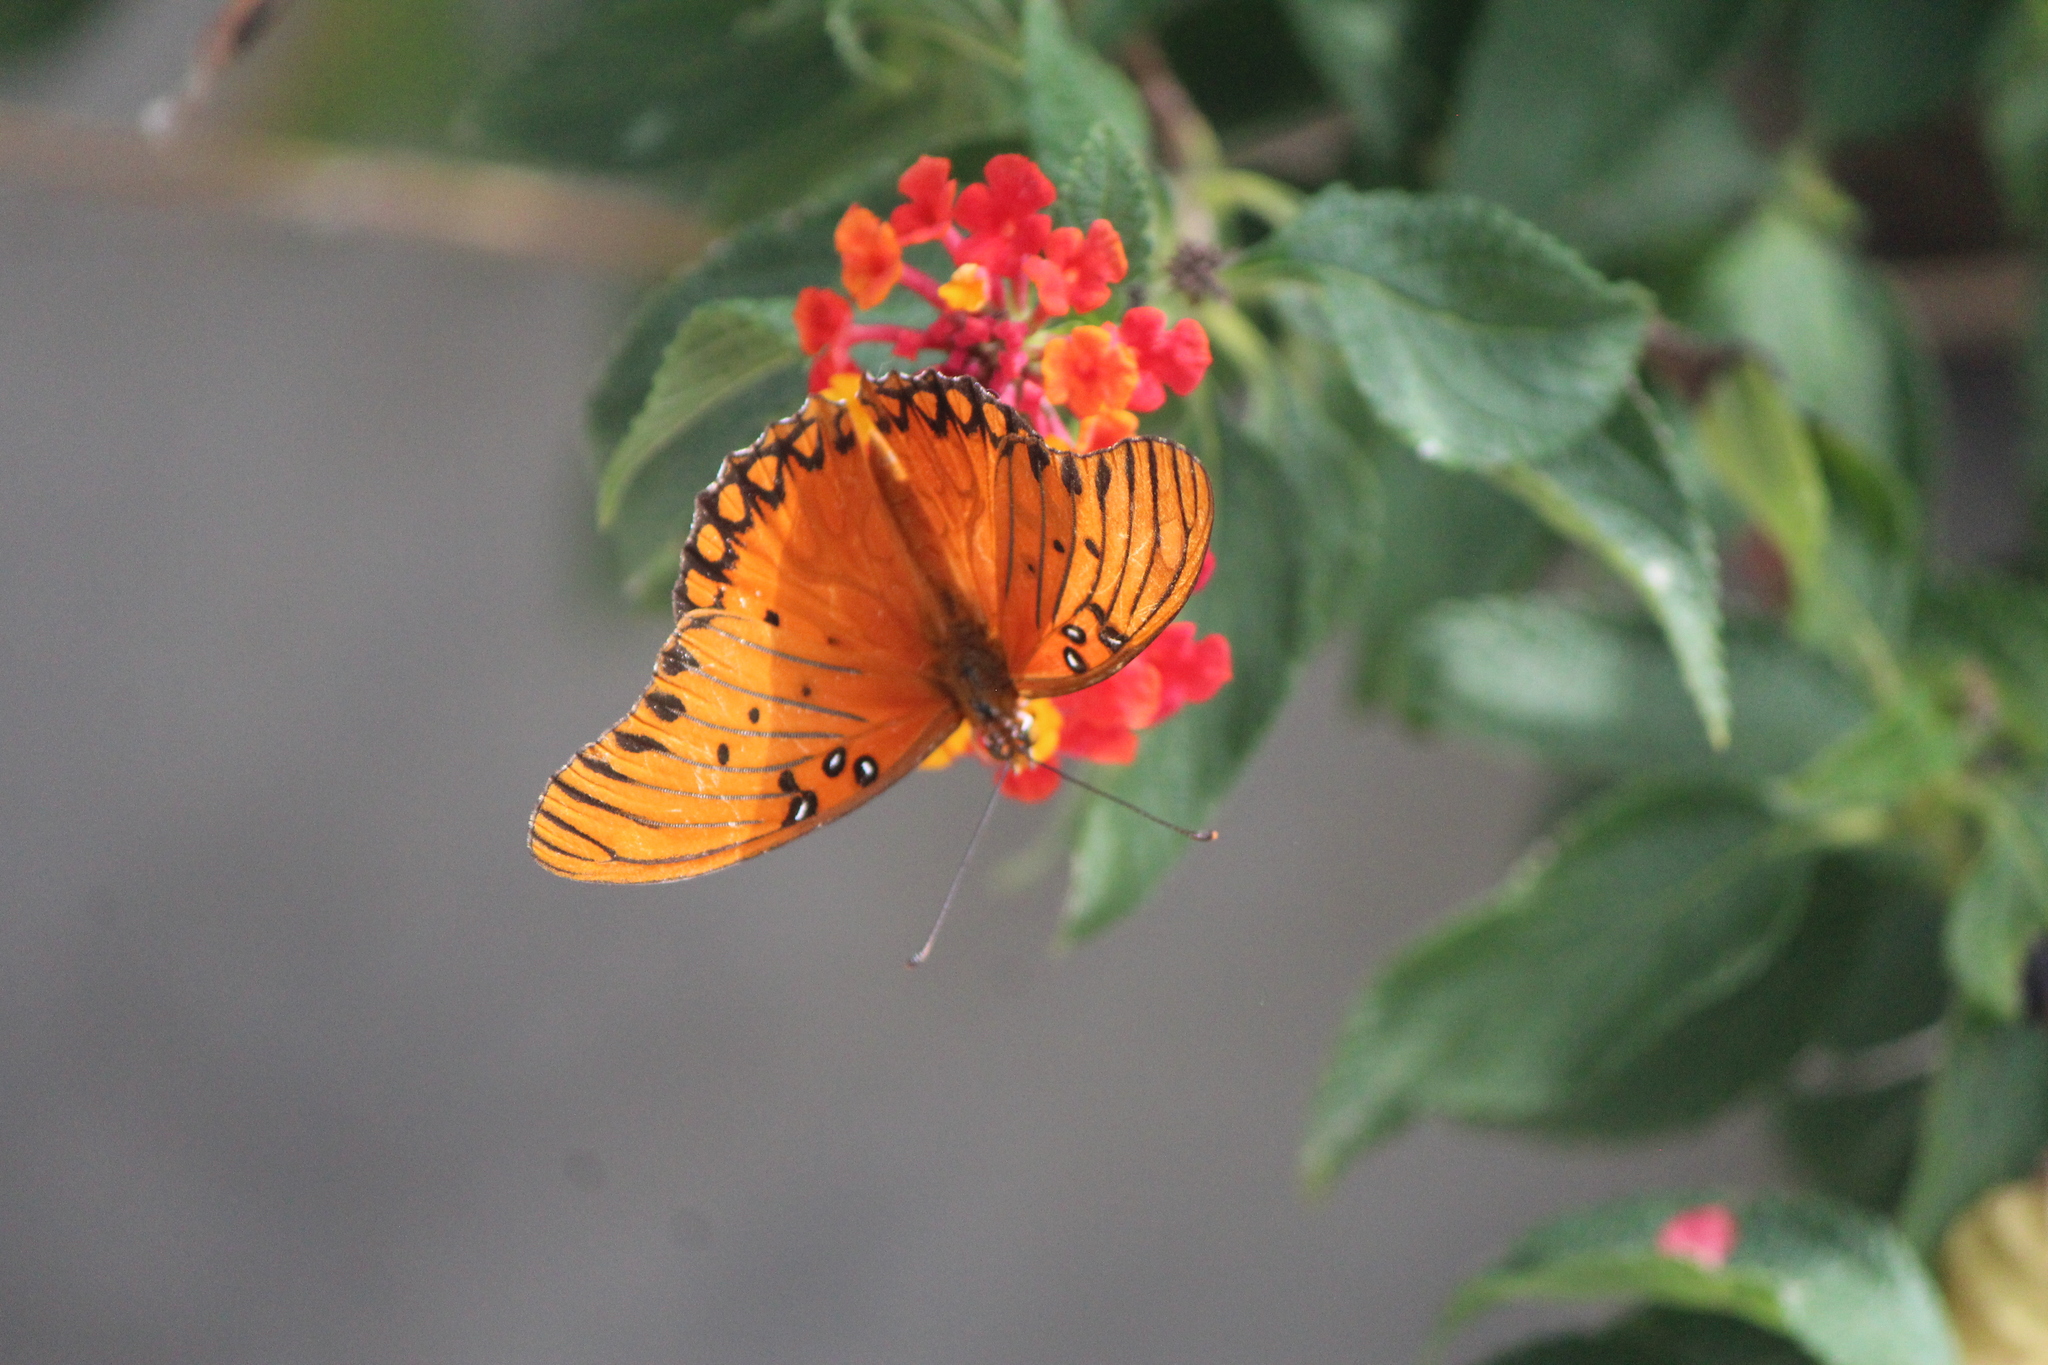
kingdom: Animalia
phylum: Arthropoda
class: Insecta
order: Lepidoptera
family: Nymphalidae
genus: Dione
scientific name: Dione vanillae
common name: Gulf fritillary
